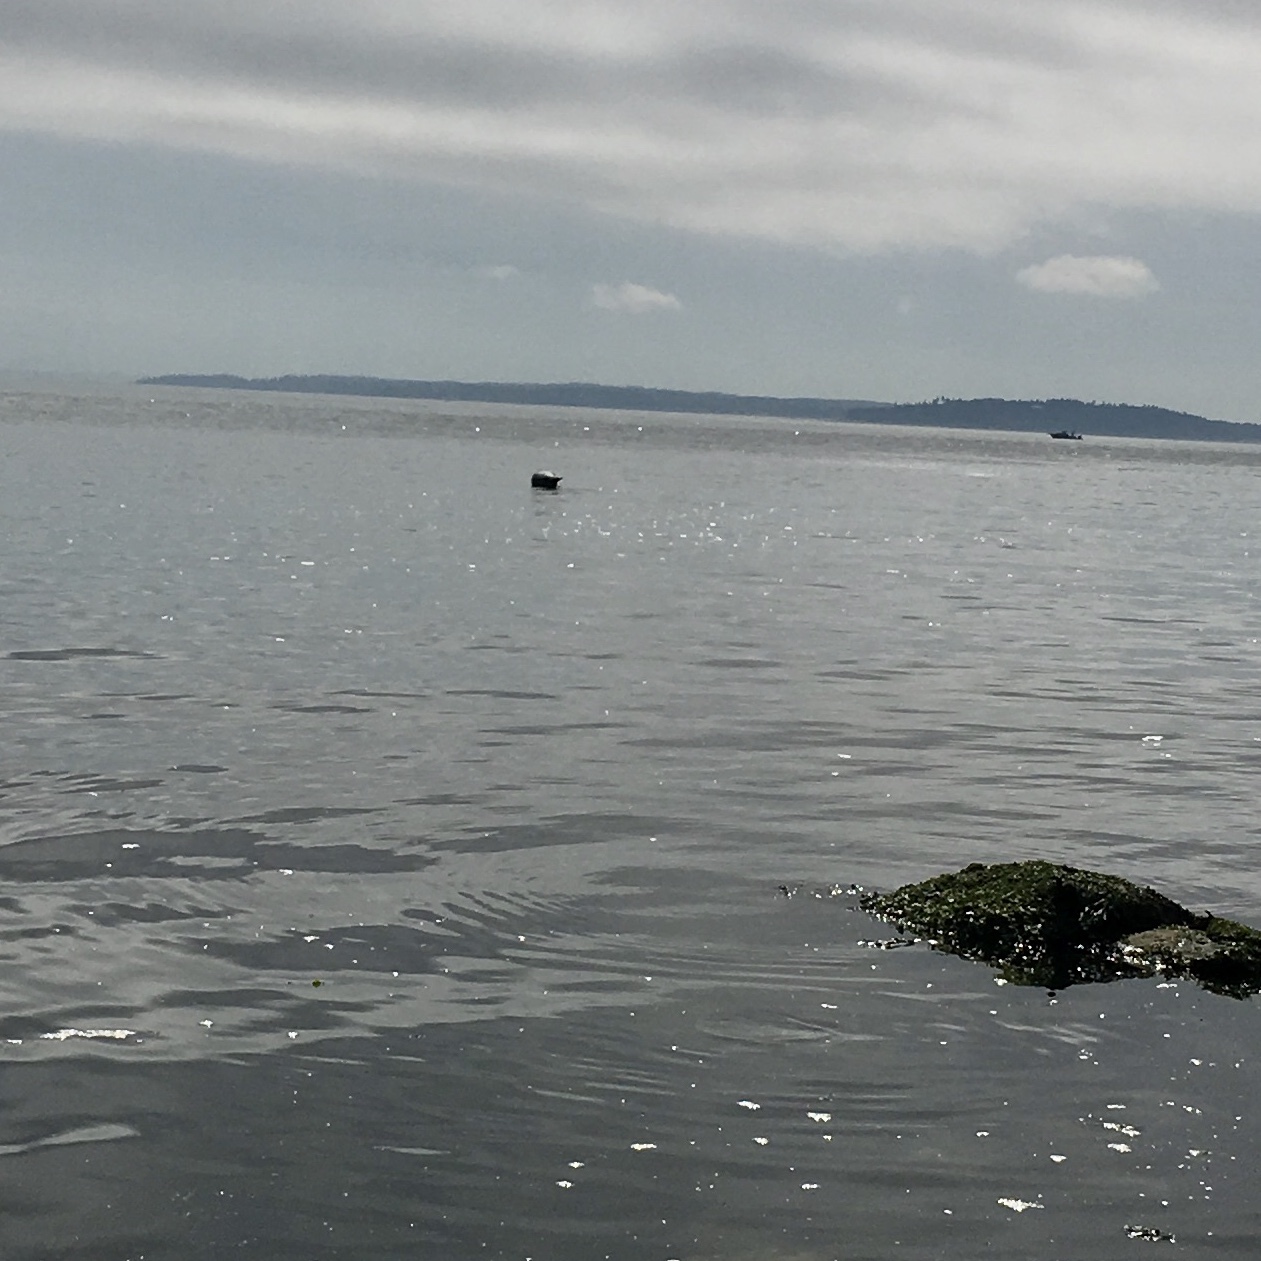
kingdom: Animalia
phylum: Chordata
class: Mammalia
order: Carnivora
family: Phocidae
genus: Phoca
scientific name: Phoca vitulina
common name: Harbor seal
